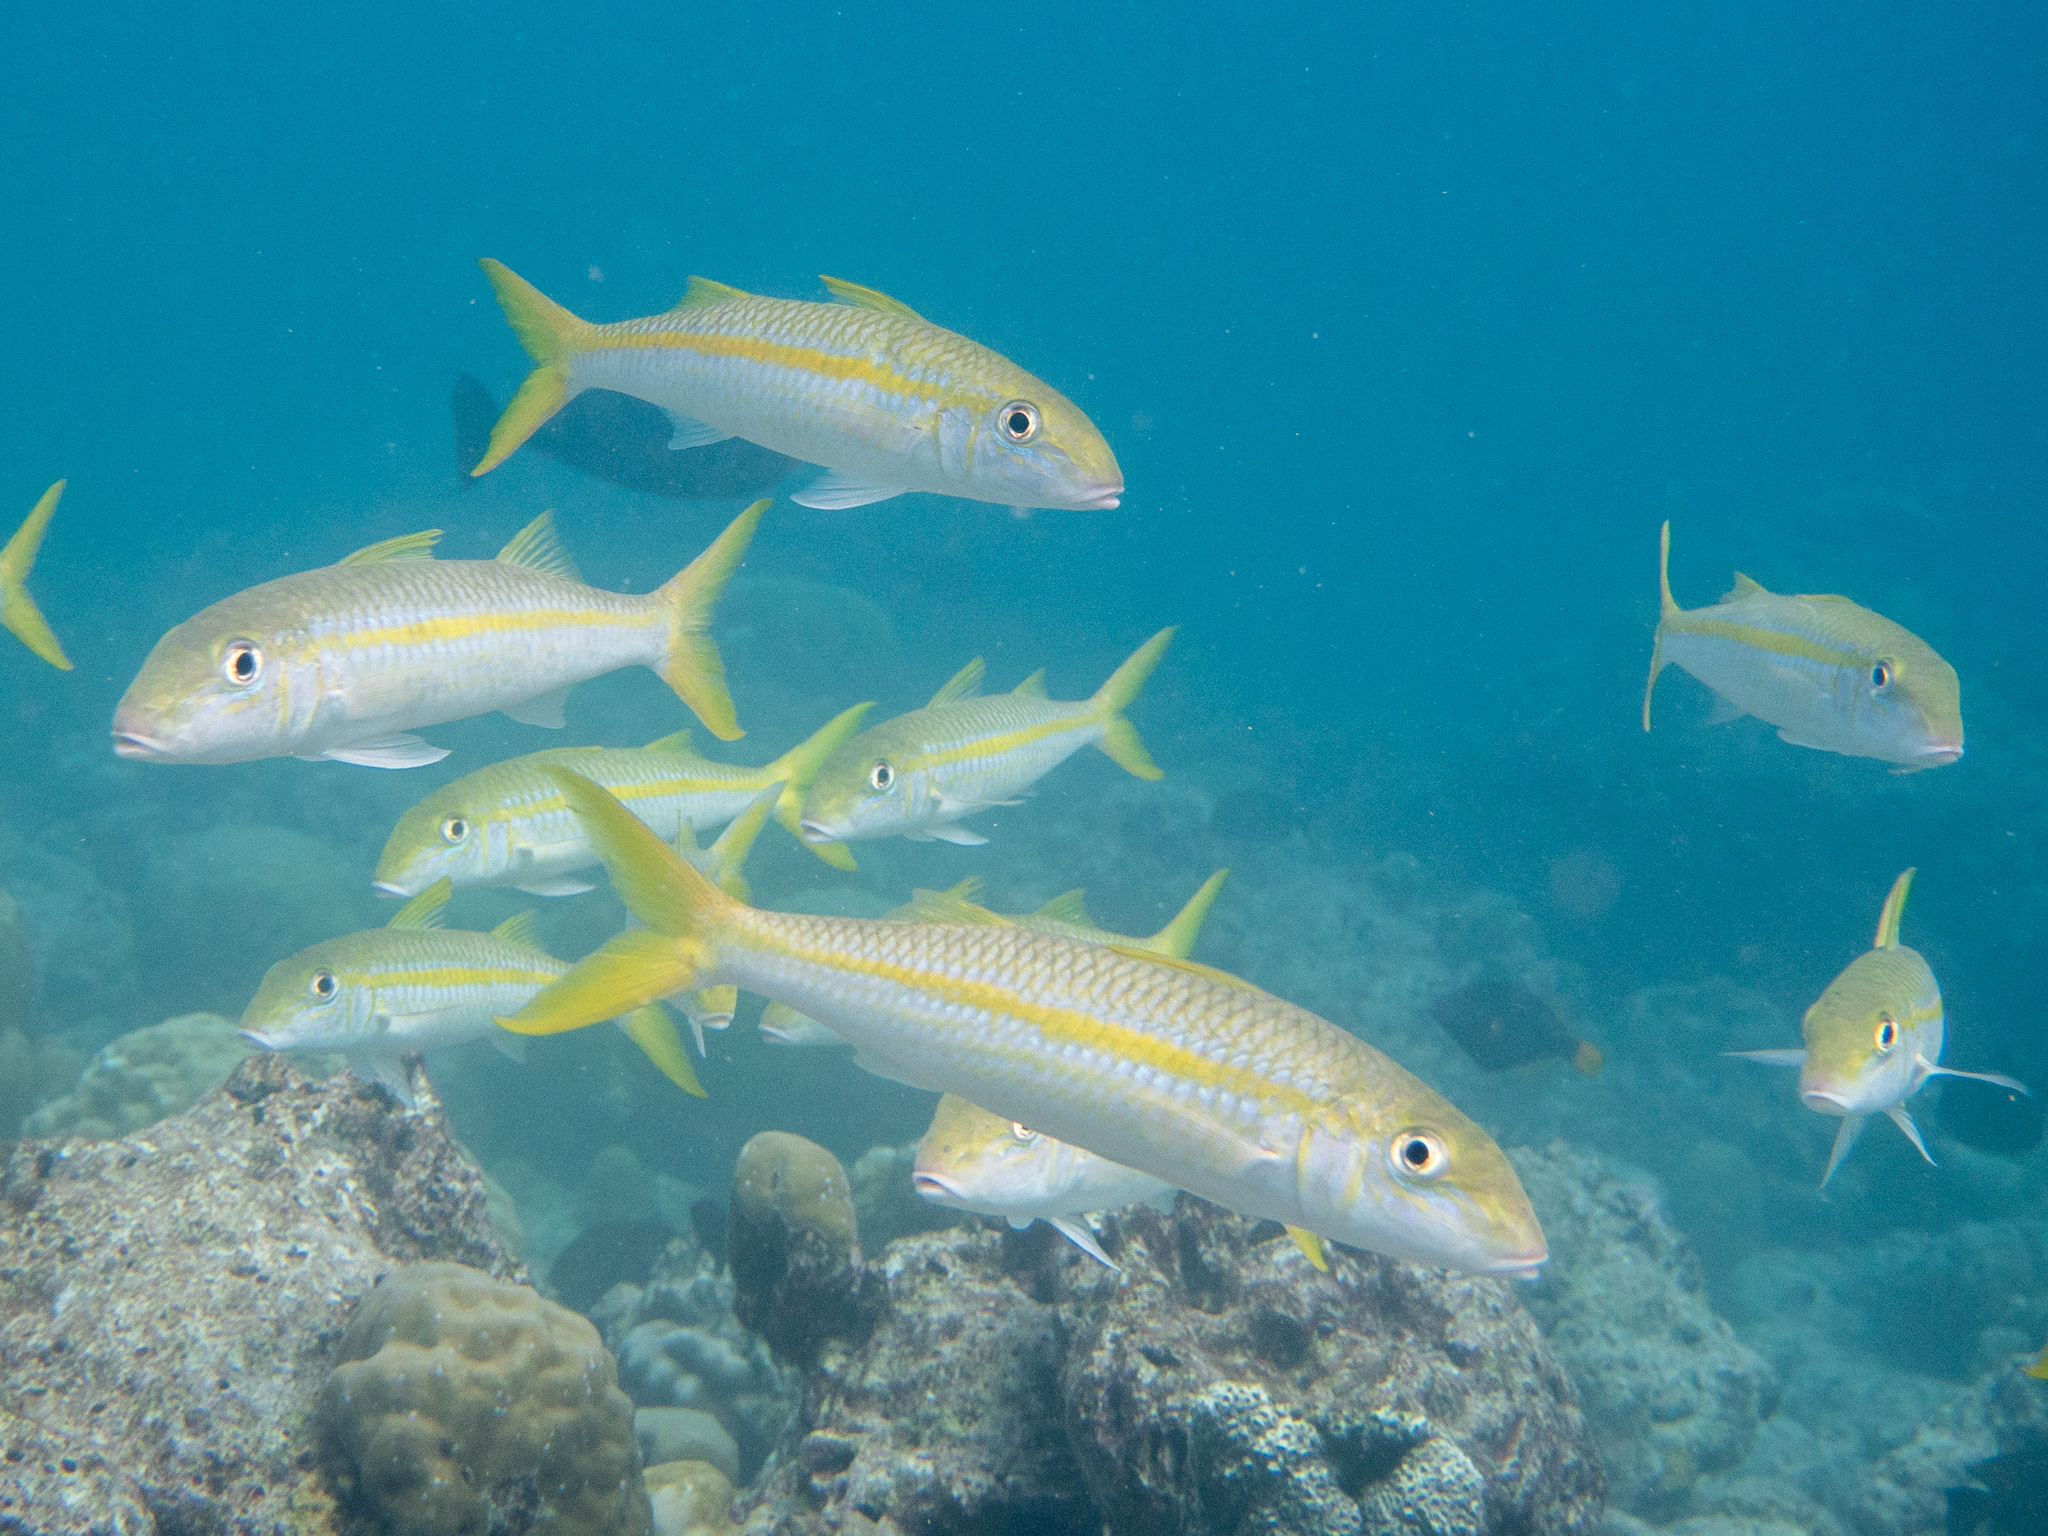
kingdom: Animalia
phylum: Chordata
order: Perciformes
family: Mullidae
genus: Mulloidichthys
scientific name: Mulloidichthys vanicolensis
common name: Yellowfin goatfish
